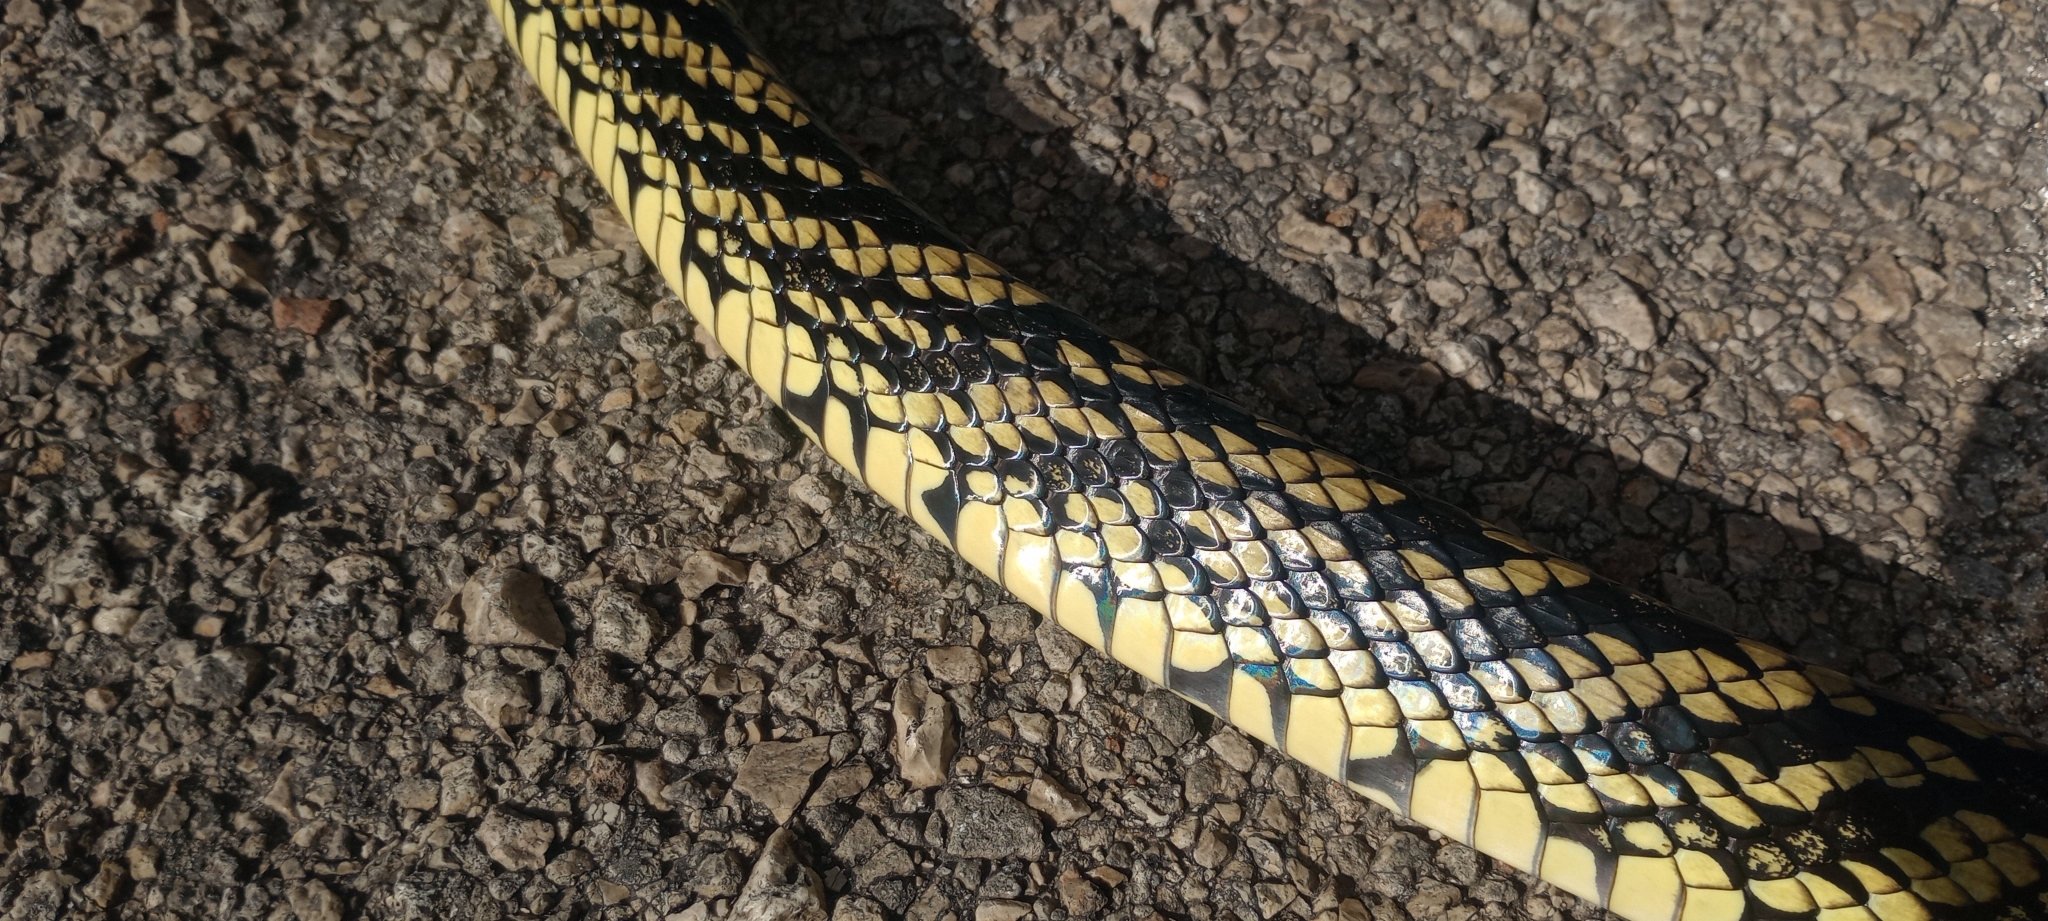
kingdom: Animalia
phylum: Chordata
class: Squamata
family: Colubridae
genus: Spilotes
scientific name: Spilotes pullatus
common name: Chicken snake
